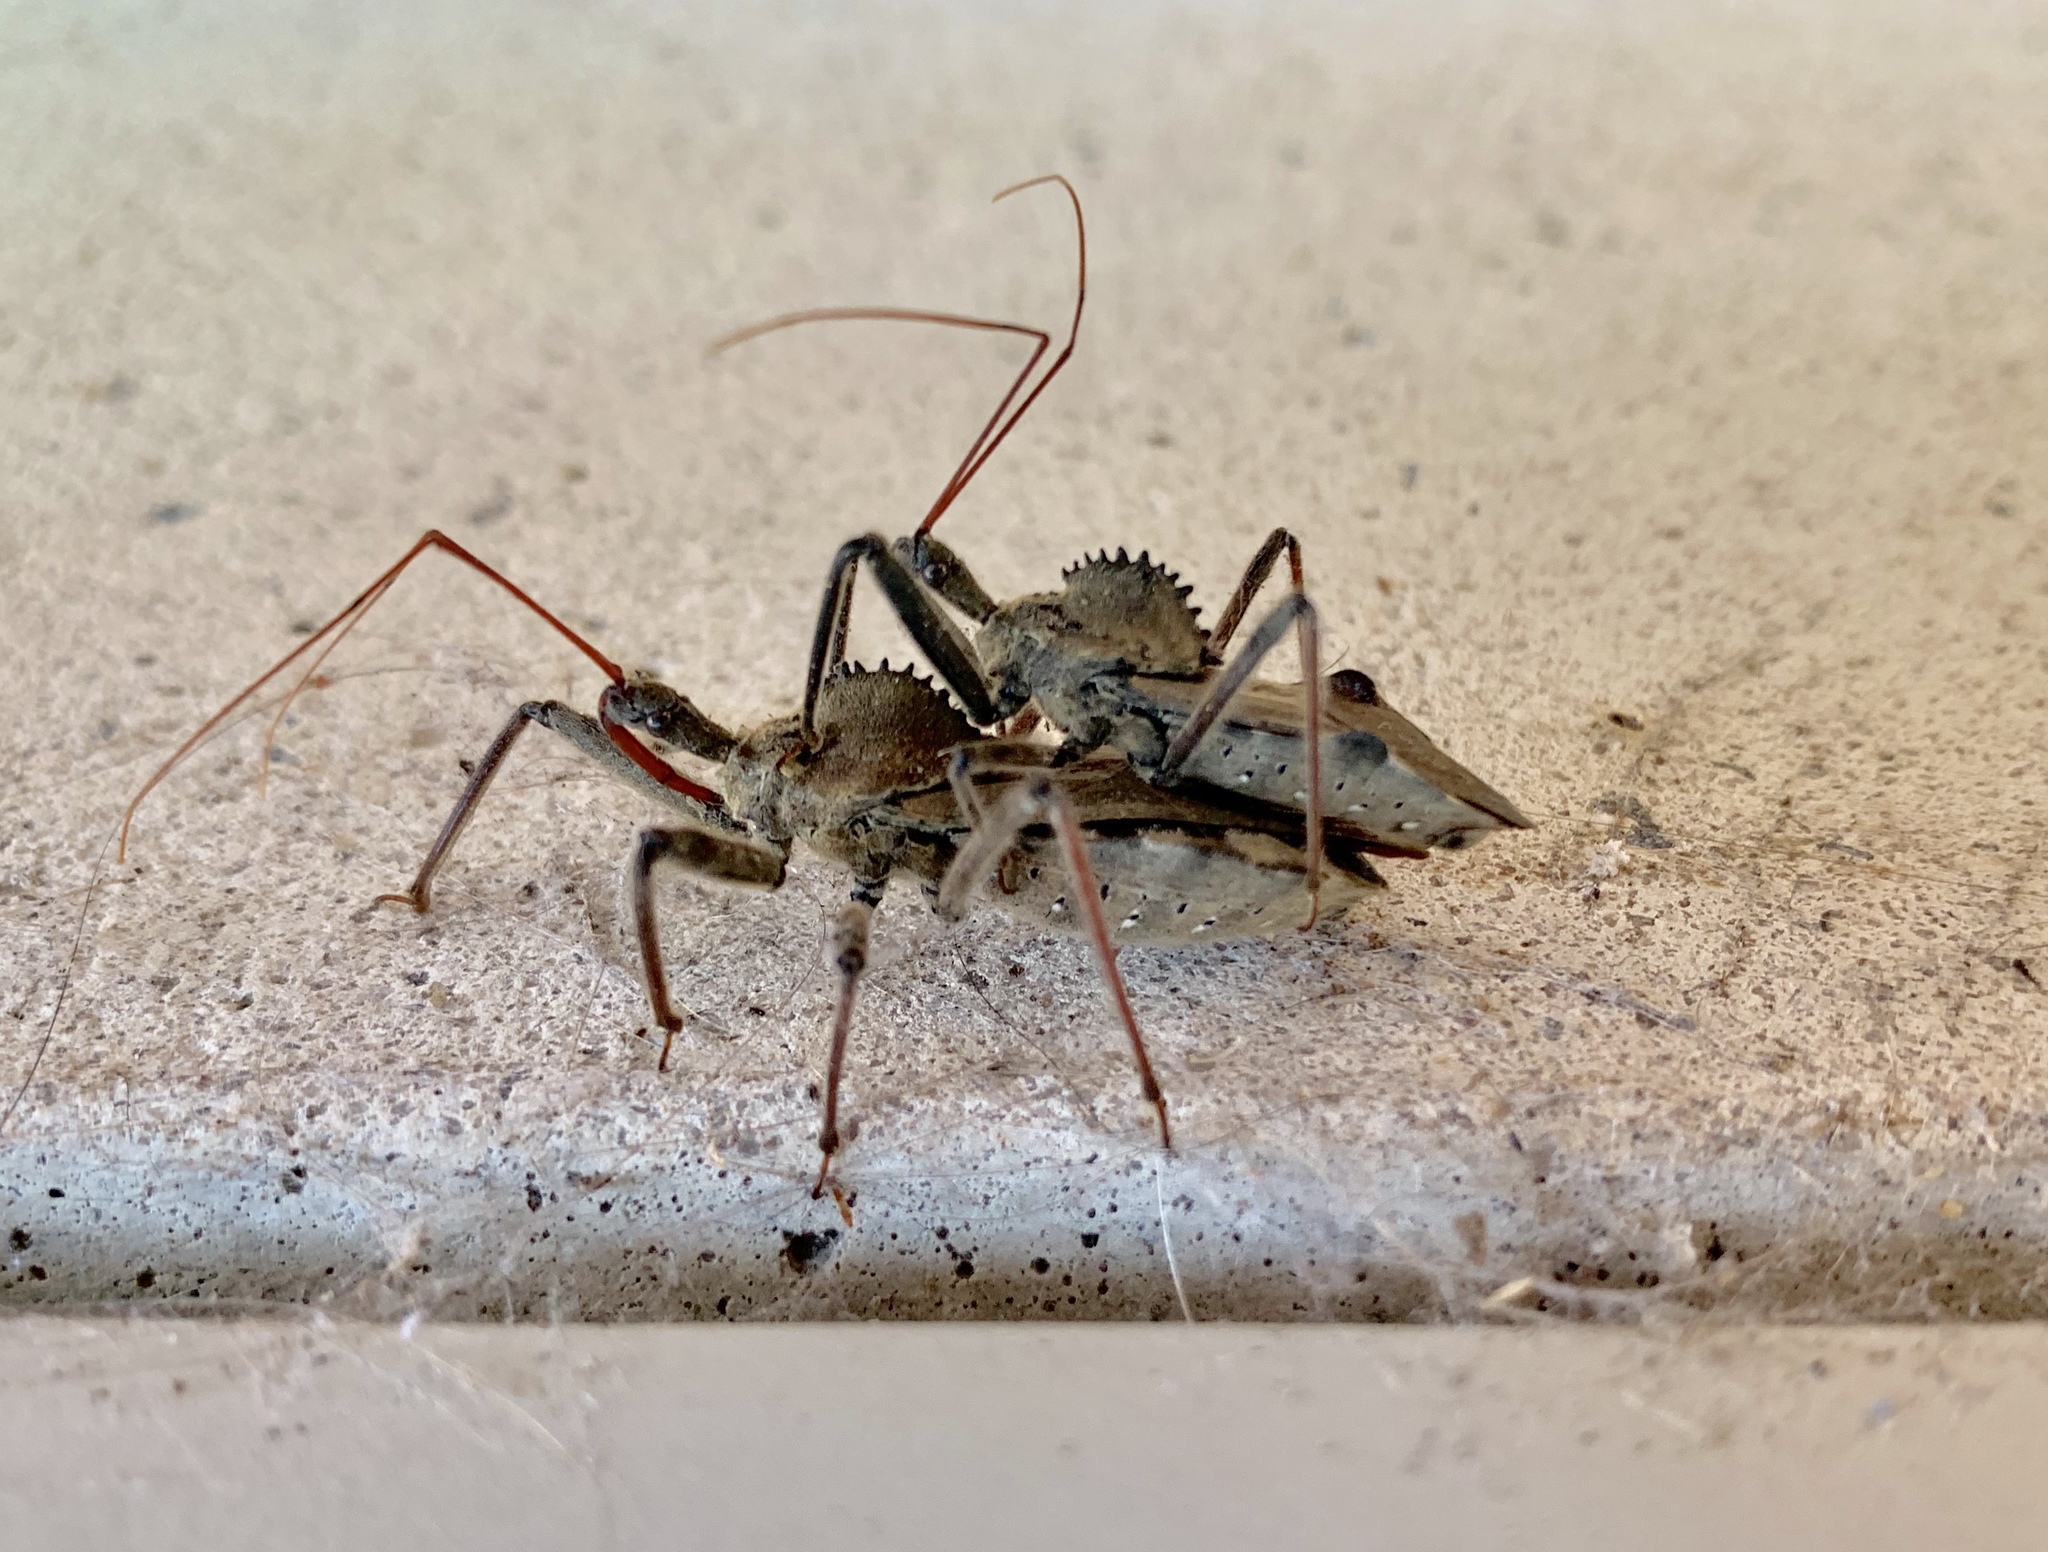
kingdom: Animalia
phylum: Arthropoda
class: Insecta
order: Hemiptera
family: Reduviidae
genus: Arilus
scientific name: Arilus cristatus
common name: North american wheel bug
